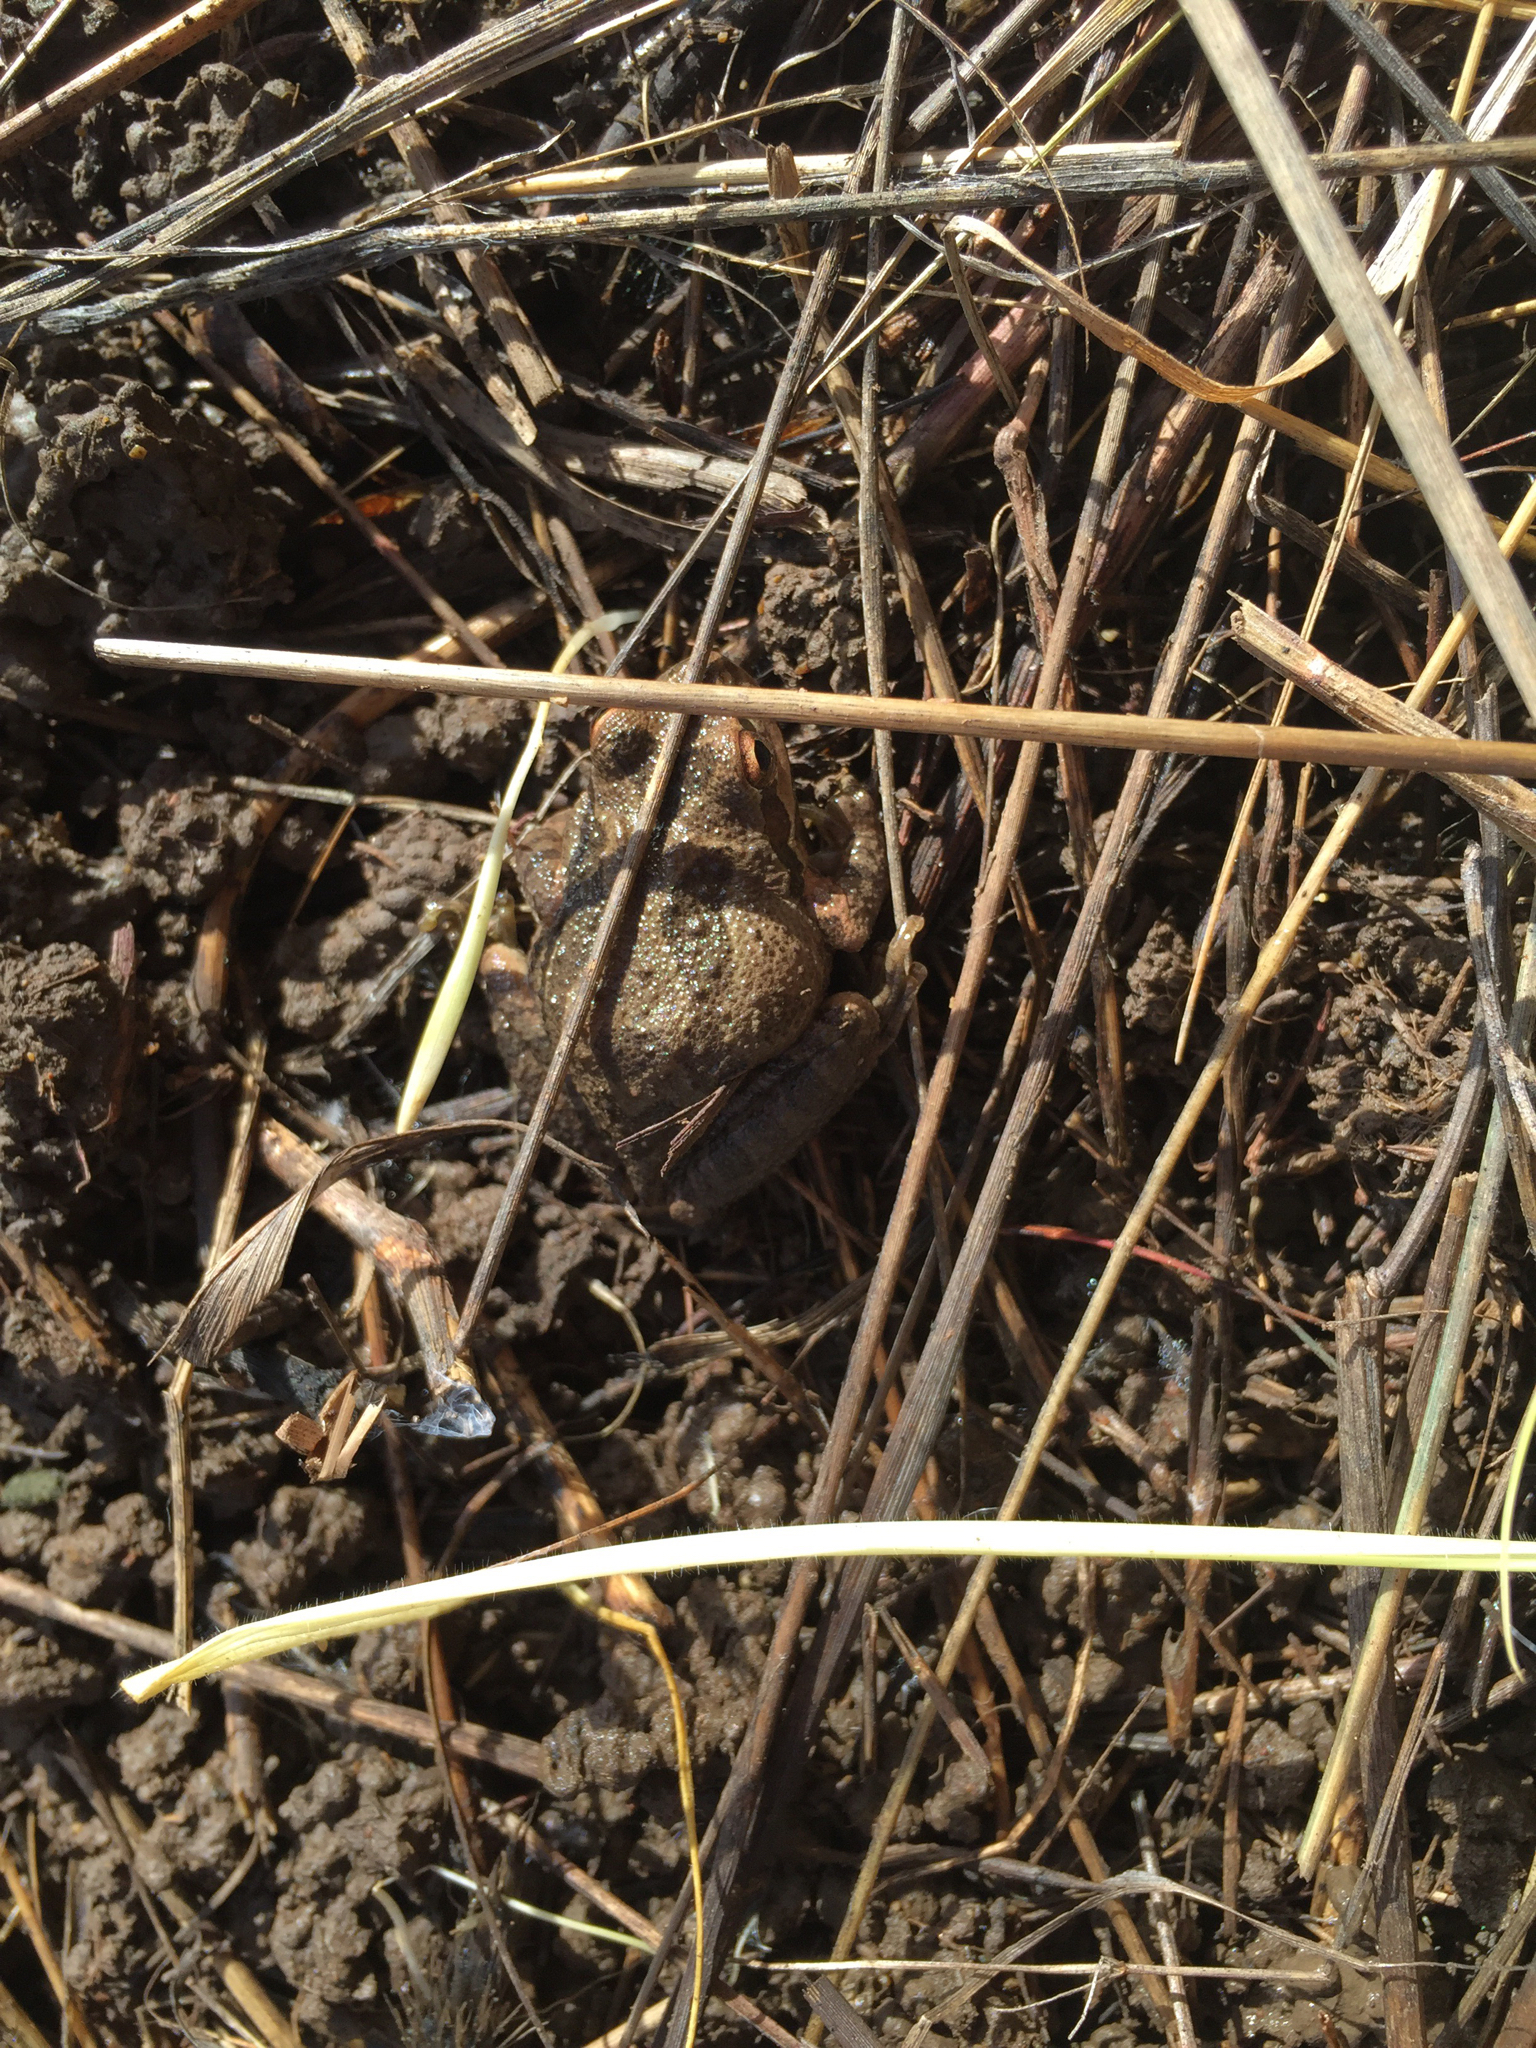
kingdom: Animalia
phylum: Chordata
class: Amphibia
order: Anura
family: Hylidae
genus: Pseudacris
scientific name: Pseudacris regilla
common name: Pacific chorus frog
